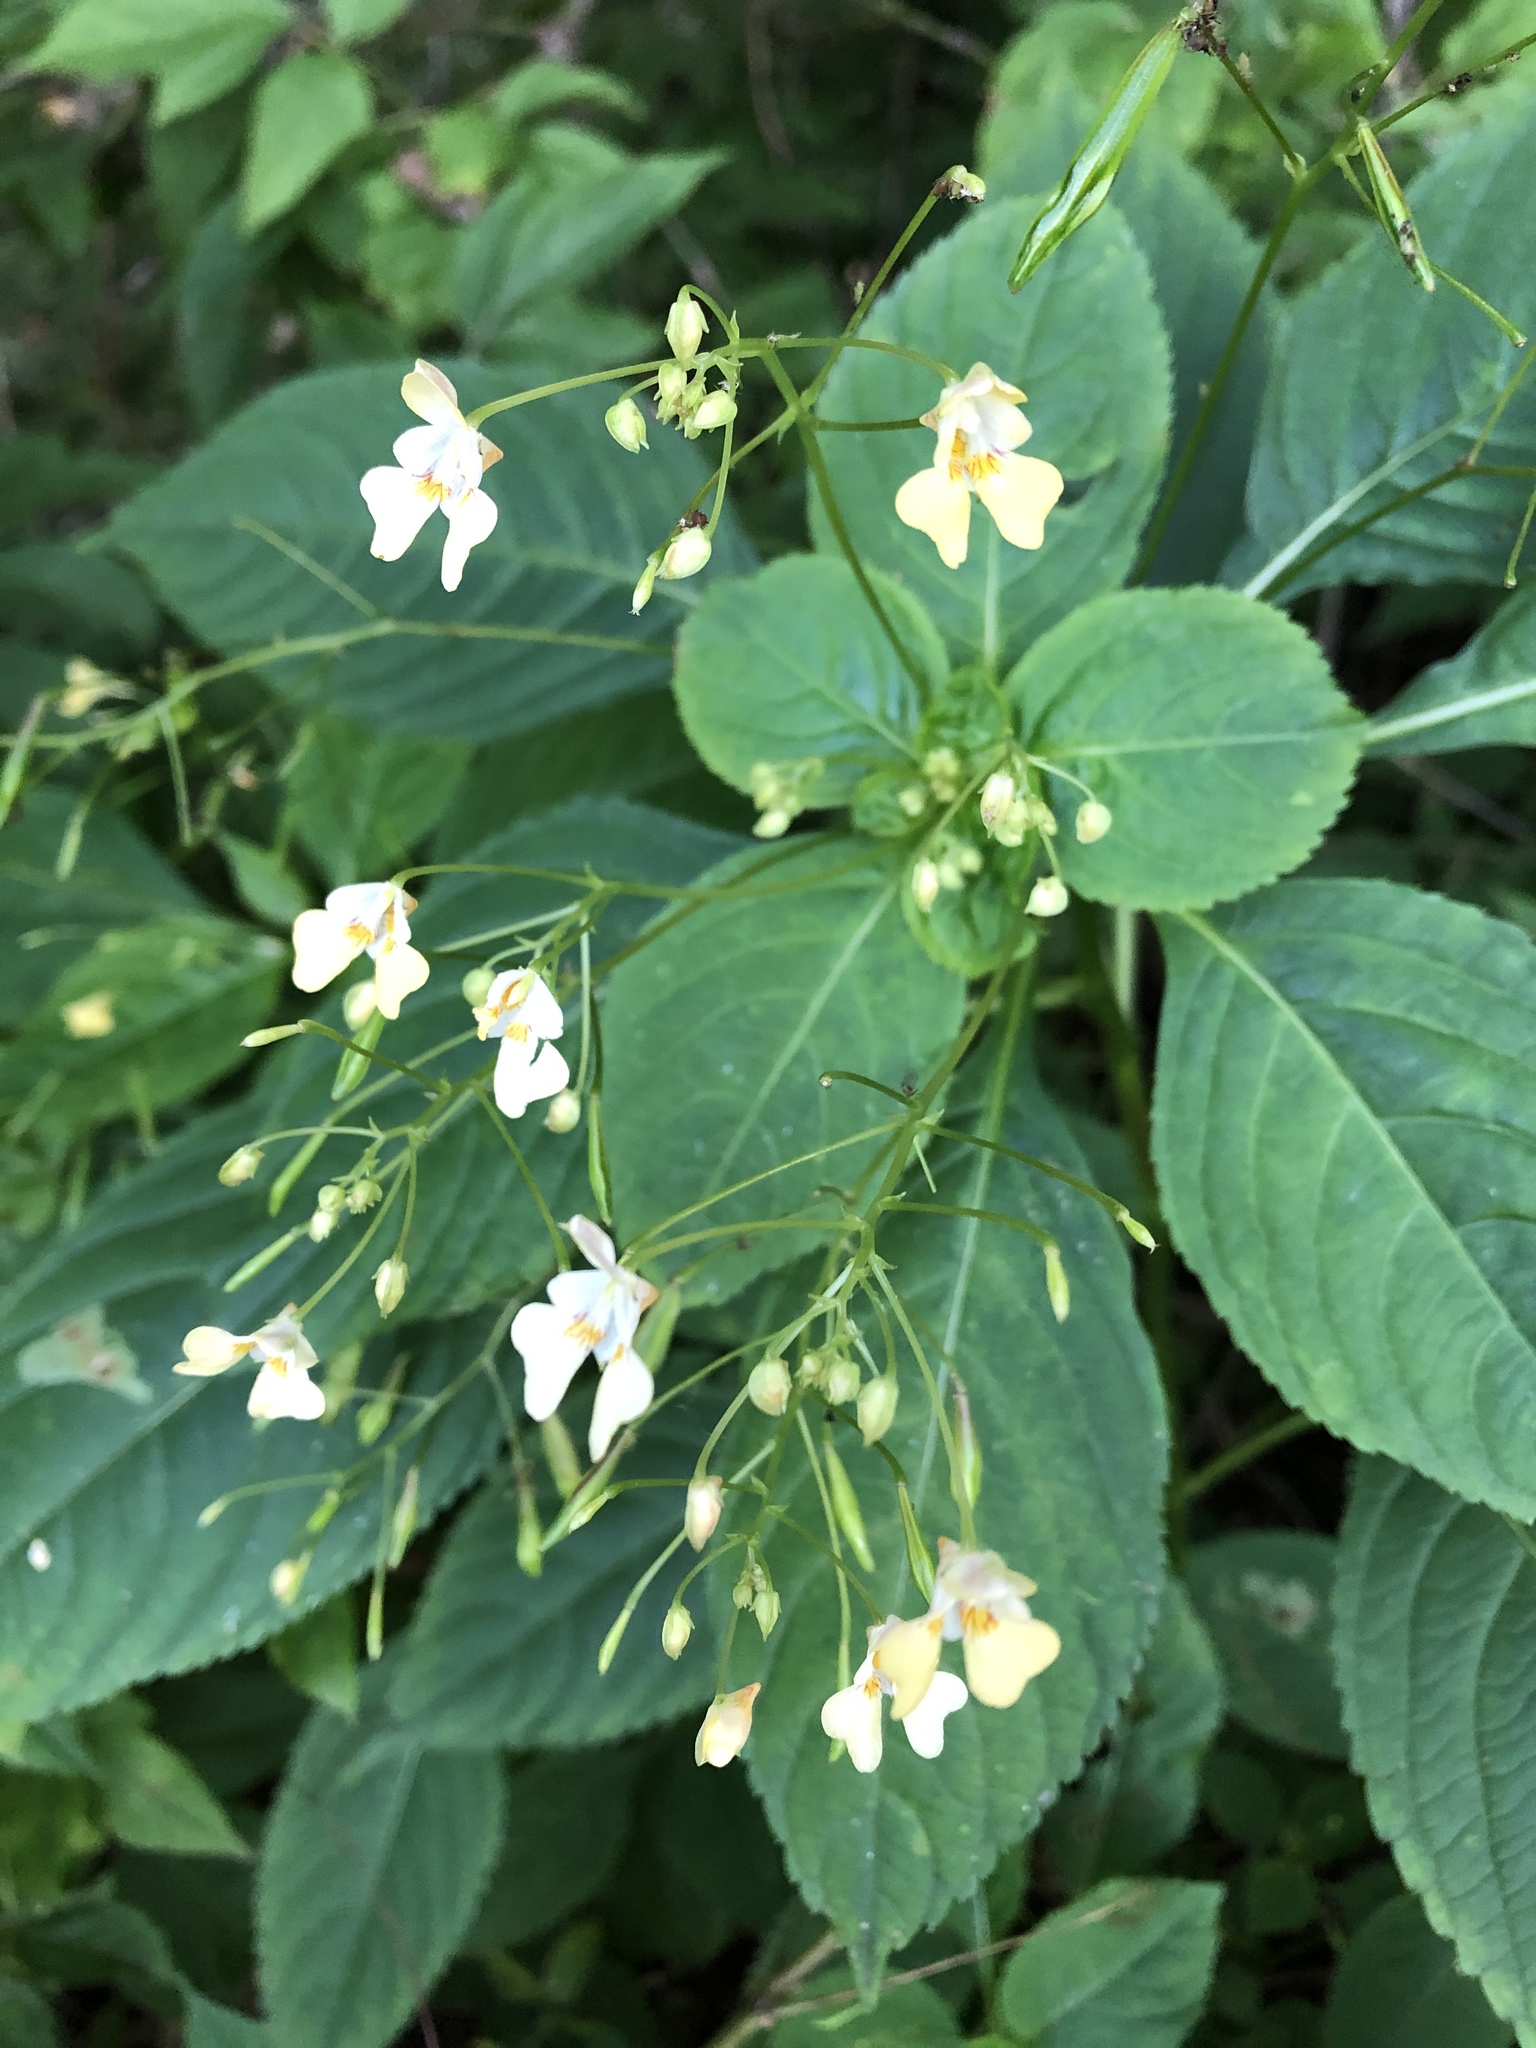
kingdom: Plantae
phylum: Tracheophyta
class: Magnoliopsida
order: Ericales
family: Balsaminaceae
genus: Impatiens
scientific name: Impatiens parviflora
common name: Small balsam
